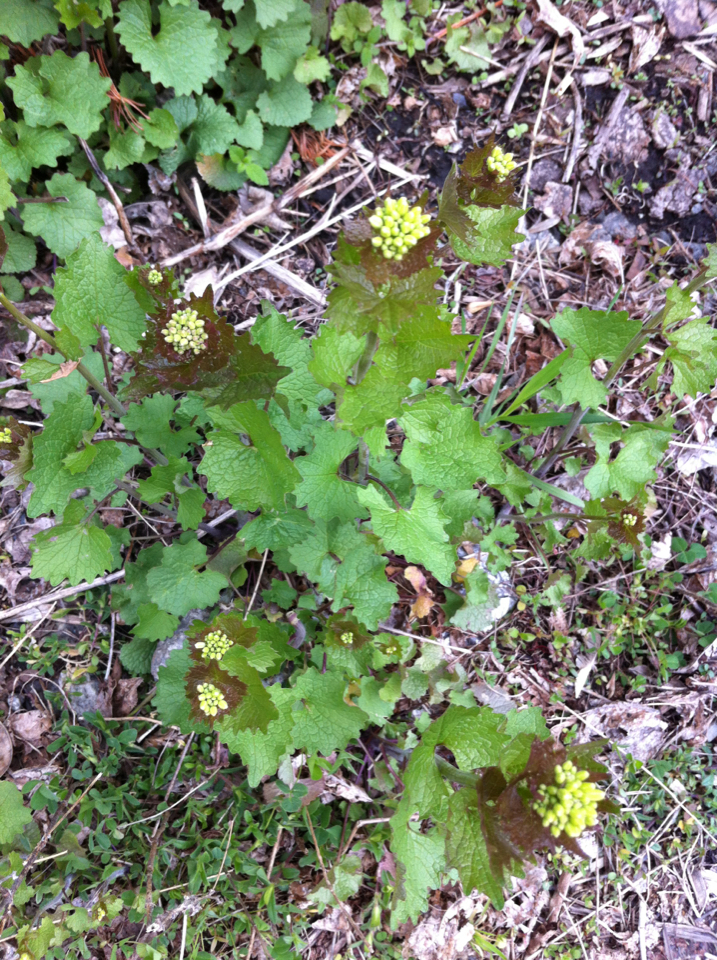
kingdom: Plantae
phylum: Tracheophyta
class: Magnoliopsida
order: Brassicales
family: Brassicaceae
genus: Alliaria
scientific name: Alliaria petiolata
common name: Garlic mustard
